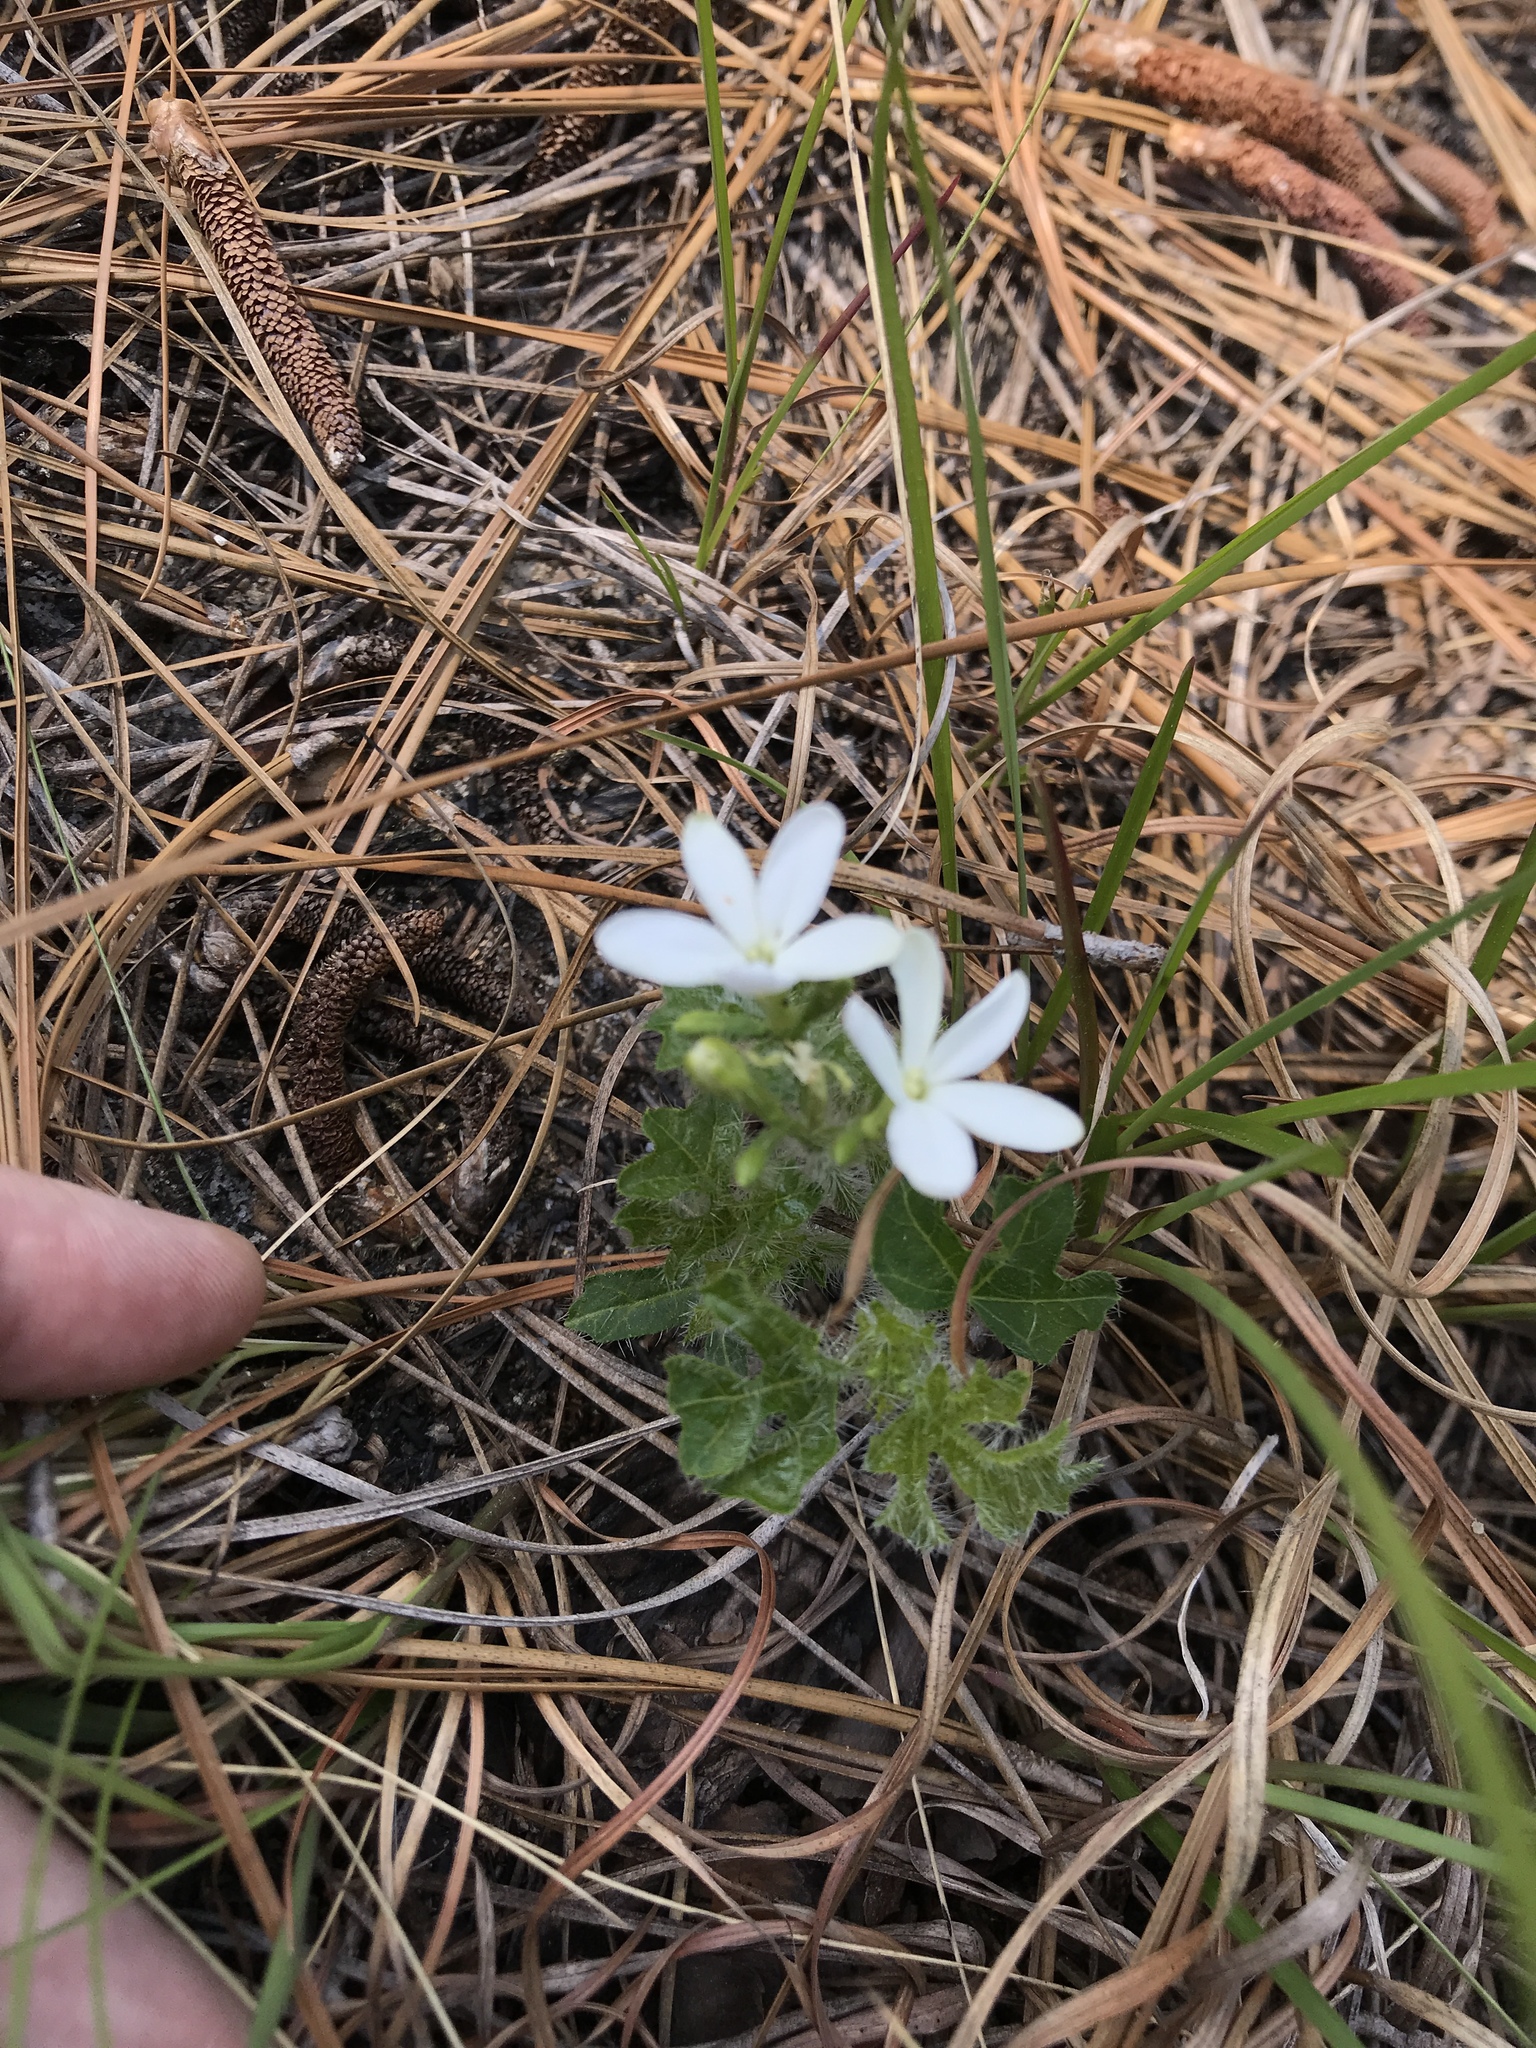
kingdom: Plantae
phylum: Tracheophyta
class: Magnoliopsida
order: Malpighiales
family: Euphorbiaceae
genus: Cnidoscolus
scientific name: Cnidoscolus stimulosus
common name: Bull-nettle
